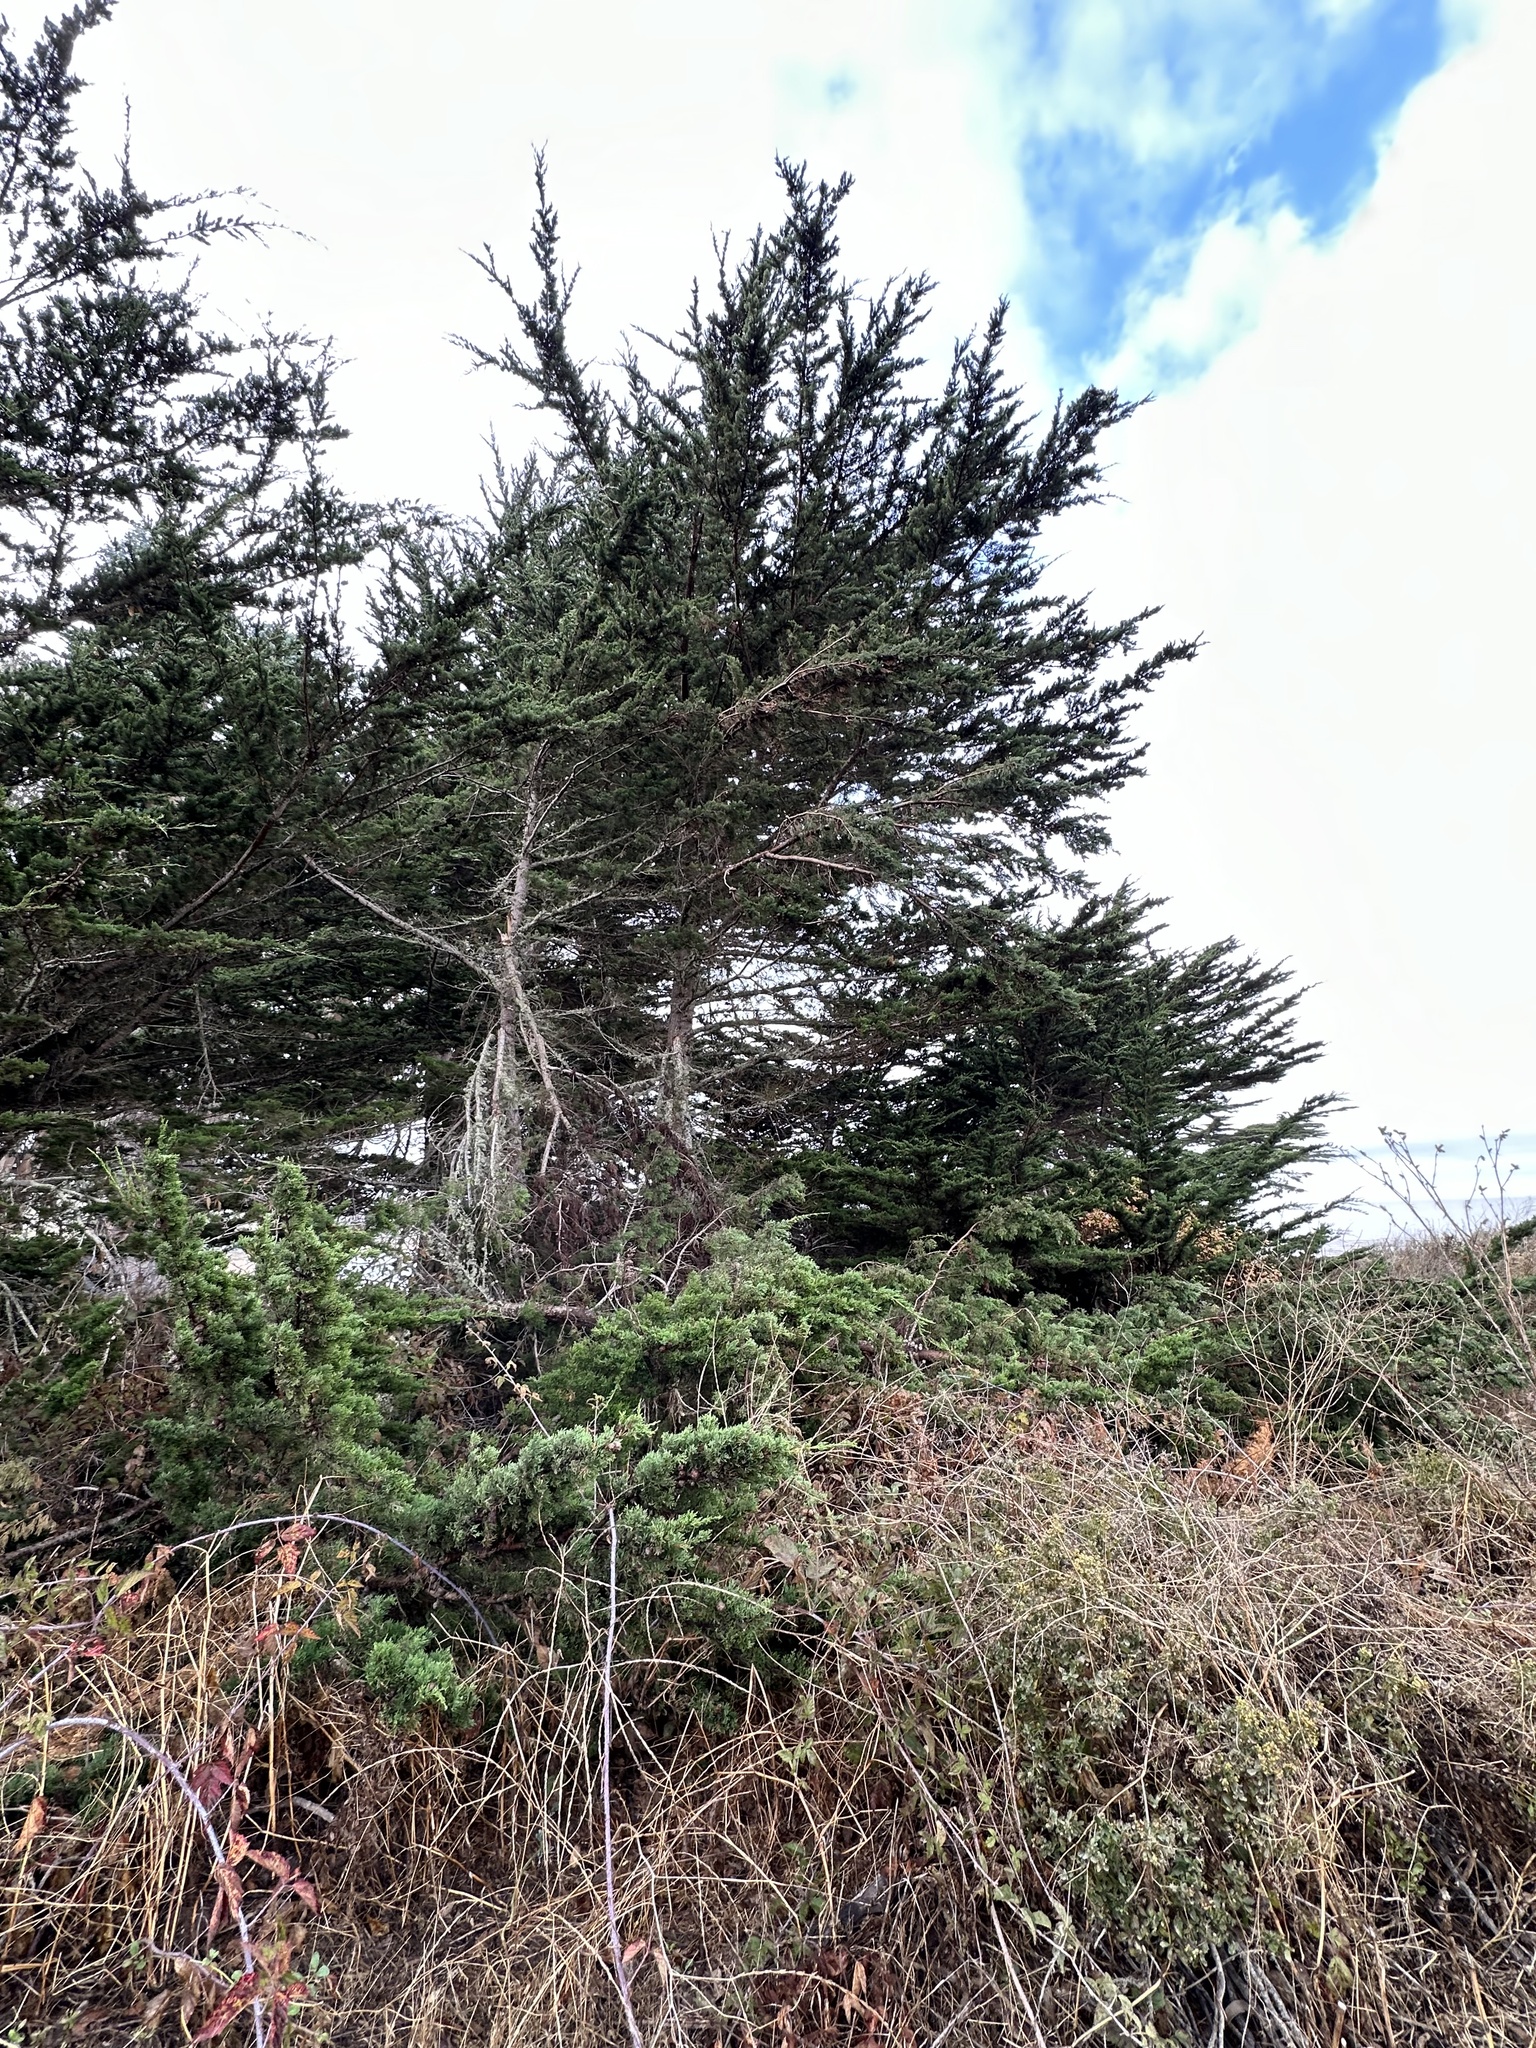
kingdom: Plantae
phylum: Tracheophyta
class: Pinopsida
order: Pinales
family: Cupressaceae
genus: Cupressus
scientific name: Cupressus macrocarpa
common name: Monterey cypress
